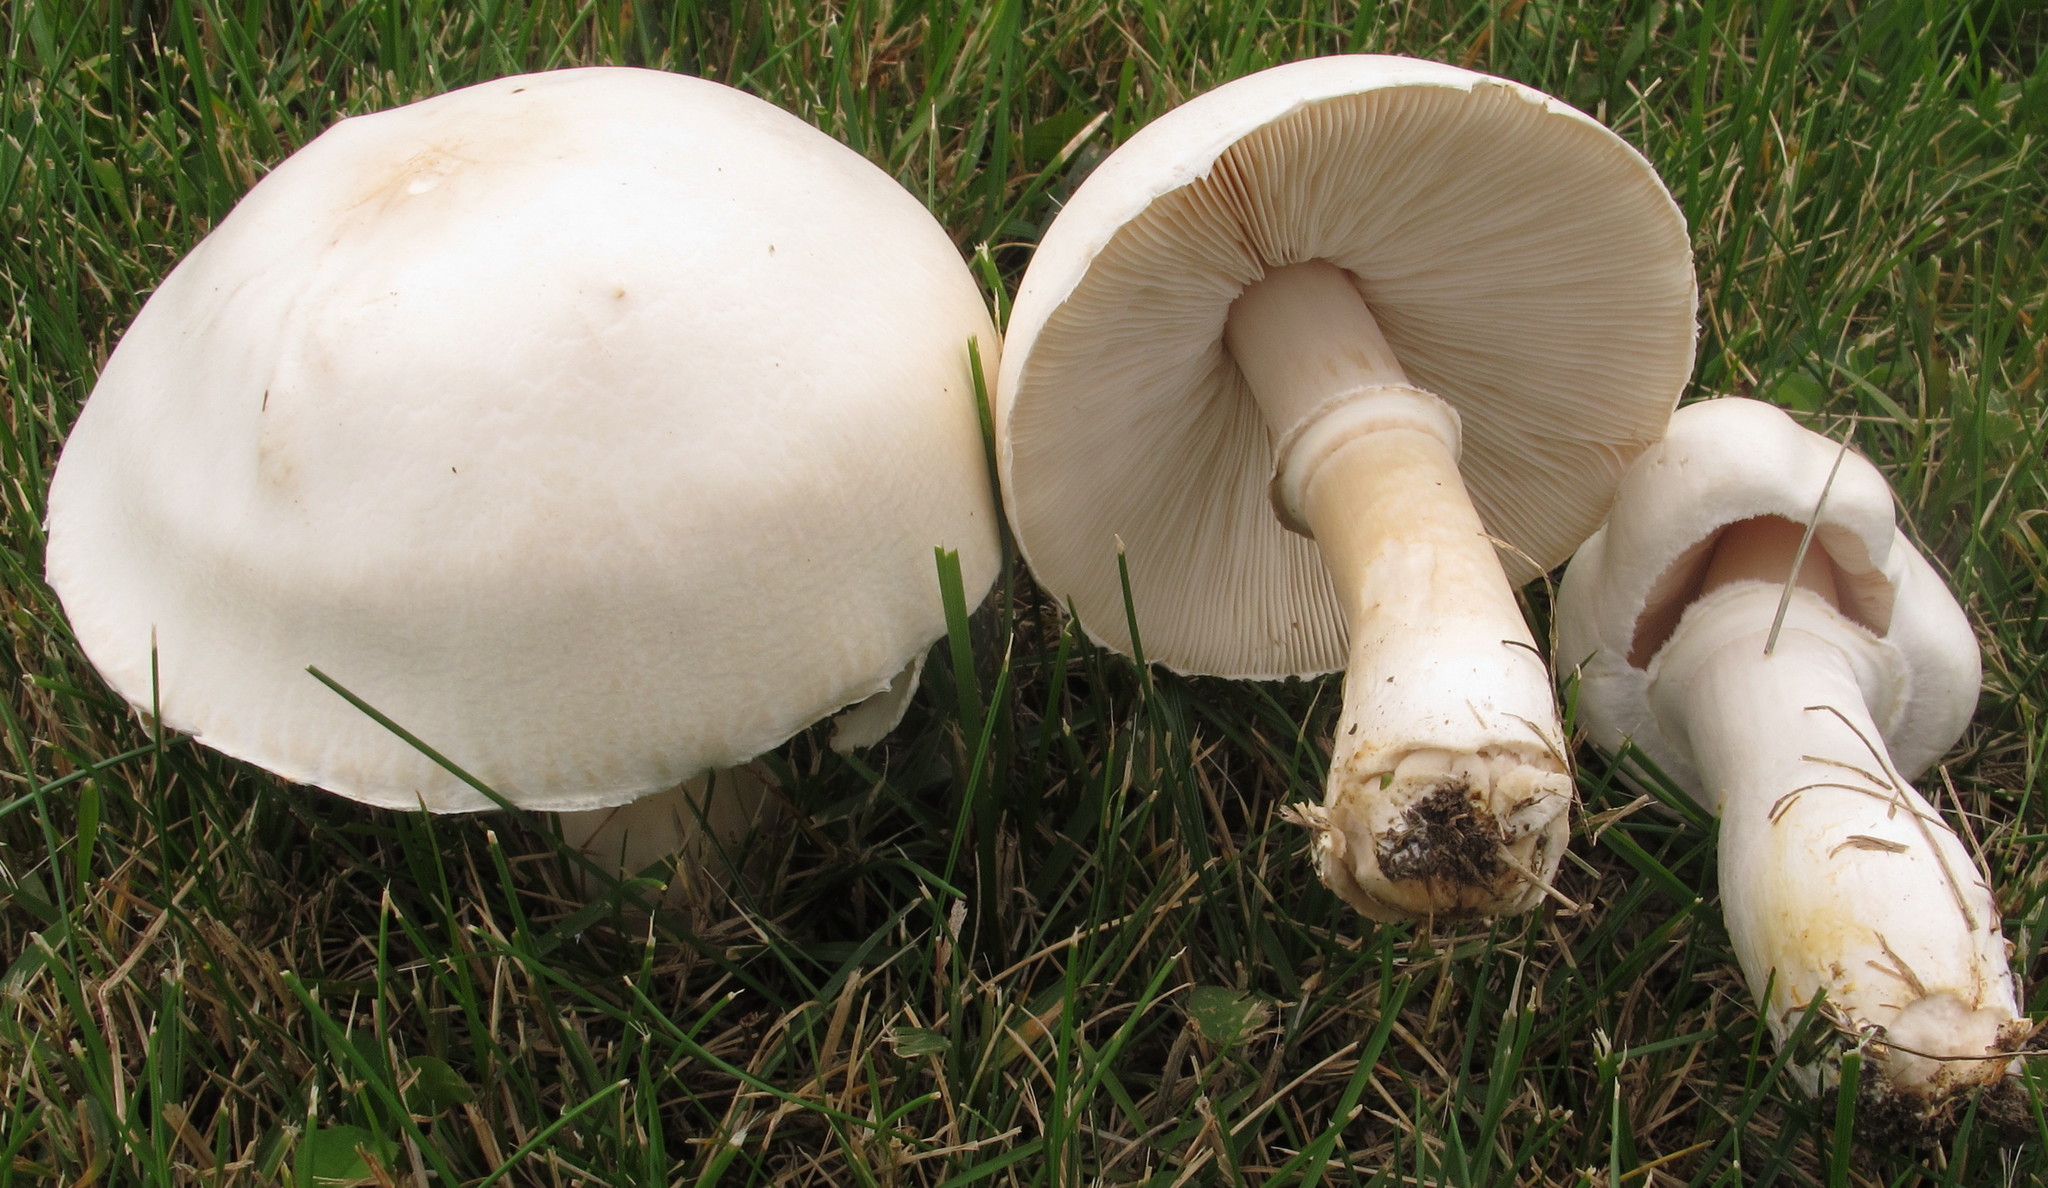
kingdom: Fungi
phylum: Basidiomycota
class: Agaricomycetes
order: Agaricales
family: Agaricaceae
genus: Leucoagaricus
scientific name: Leucoagaricus leucothites
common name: White dapperling
